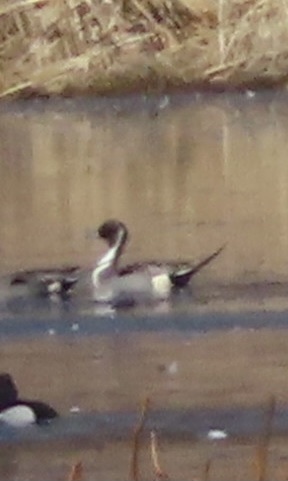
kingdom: Animalia
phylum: Chordata
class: Aves
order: Anseriformes
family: Anatidae
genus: Anas
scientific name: Anas acuta
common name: Northern pintail
